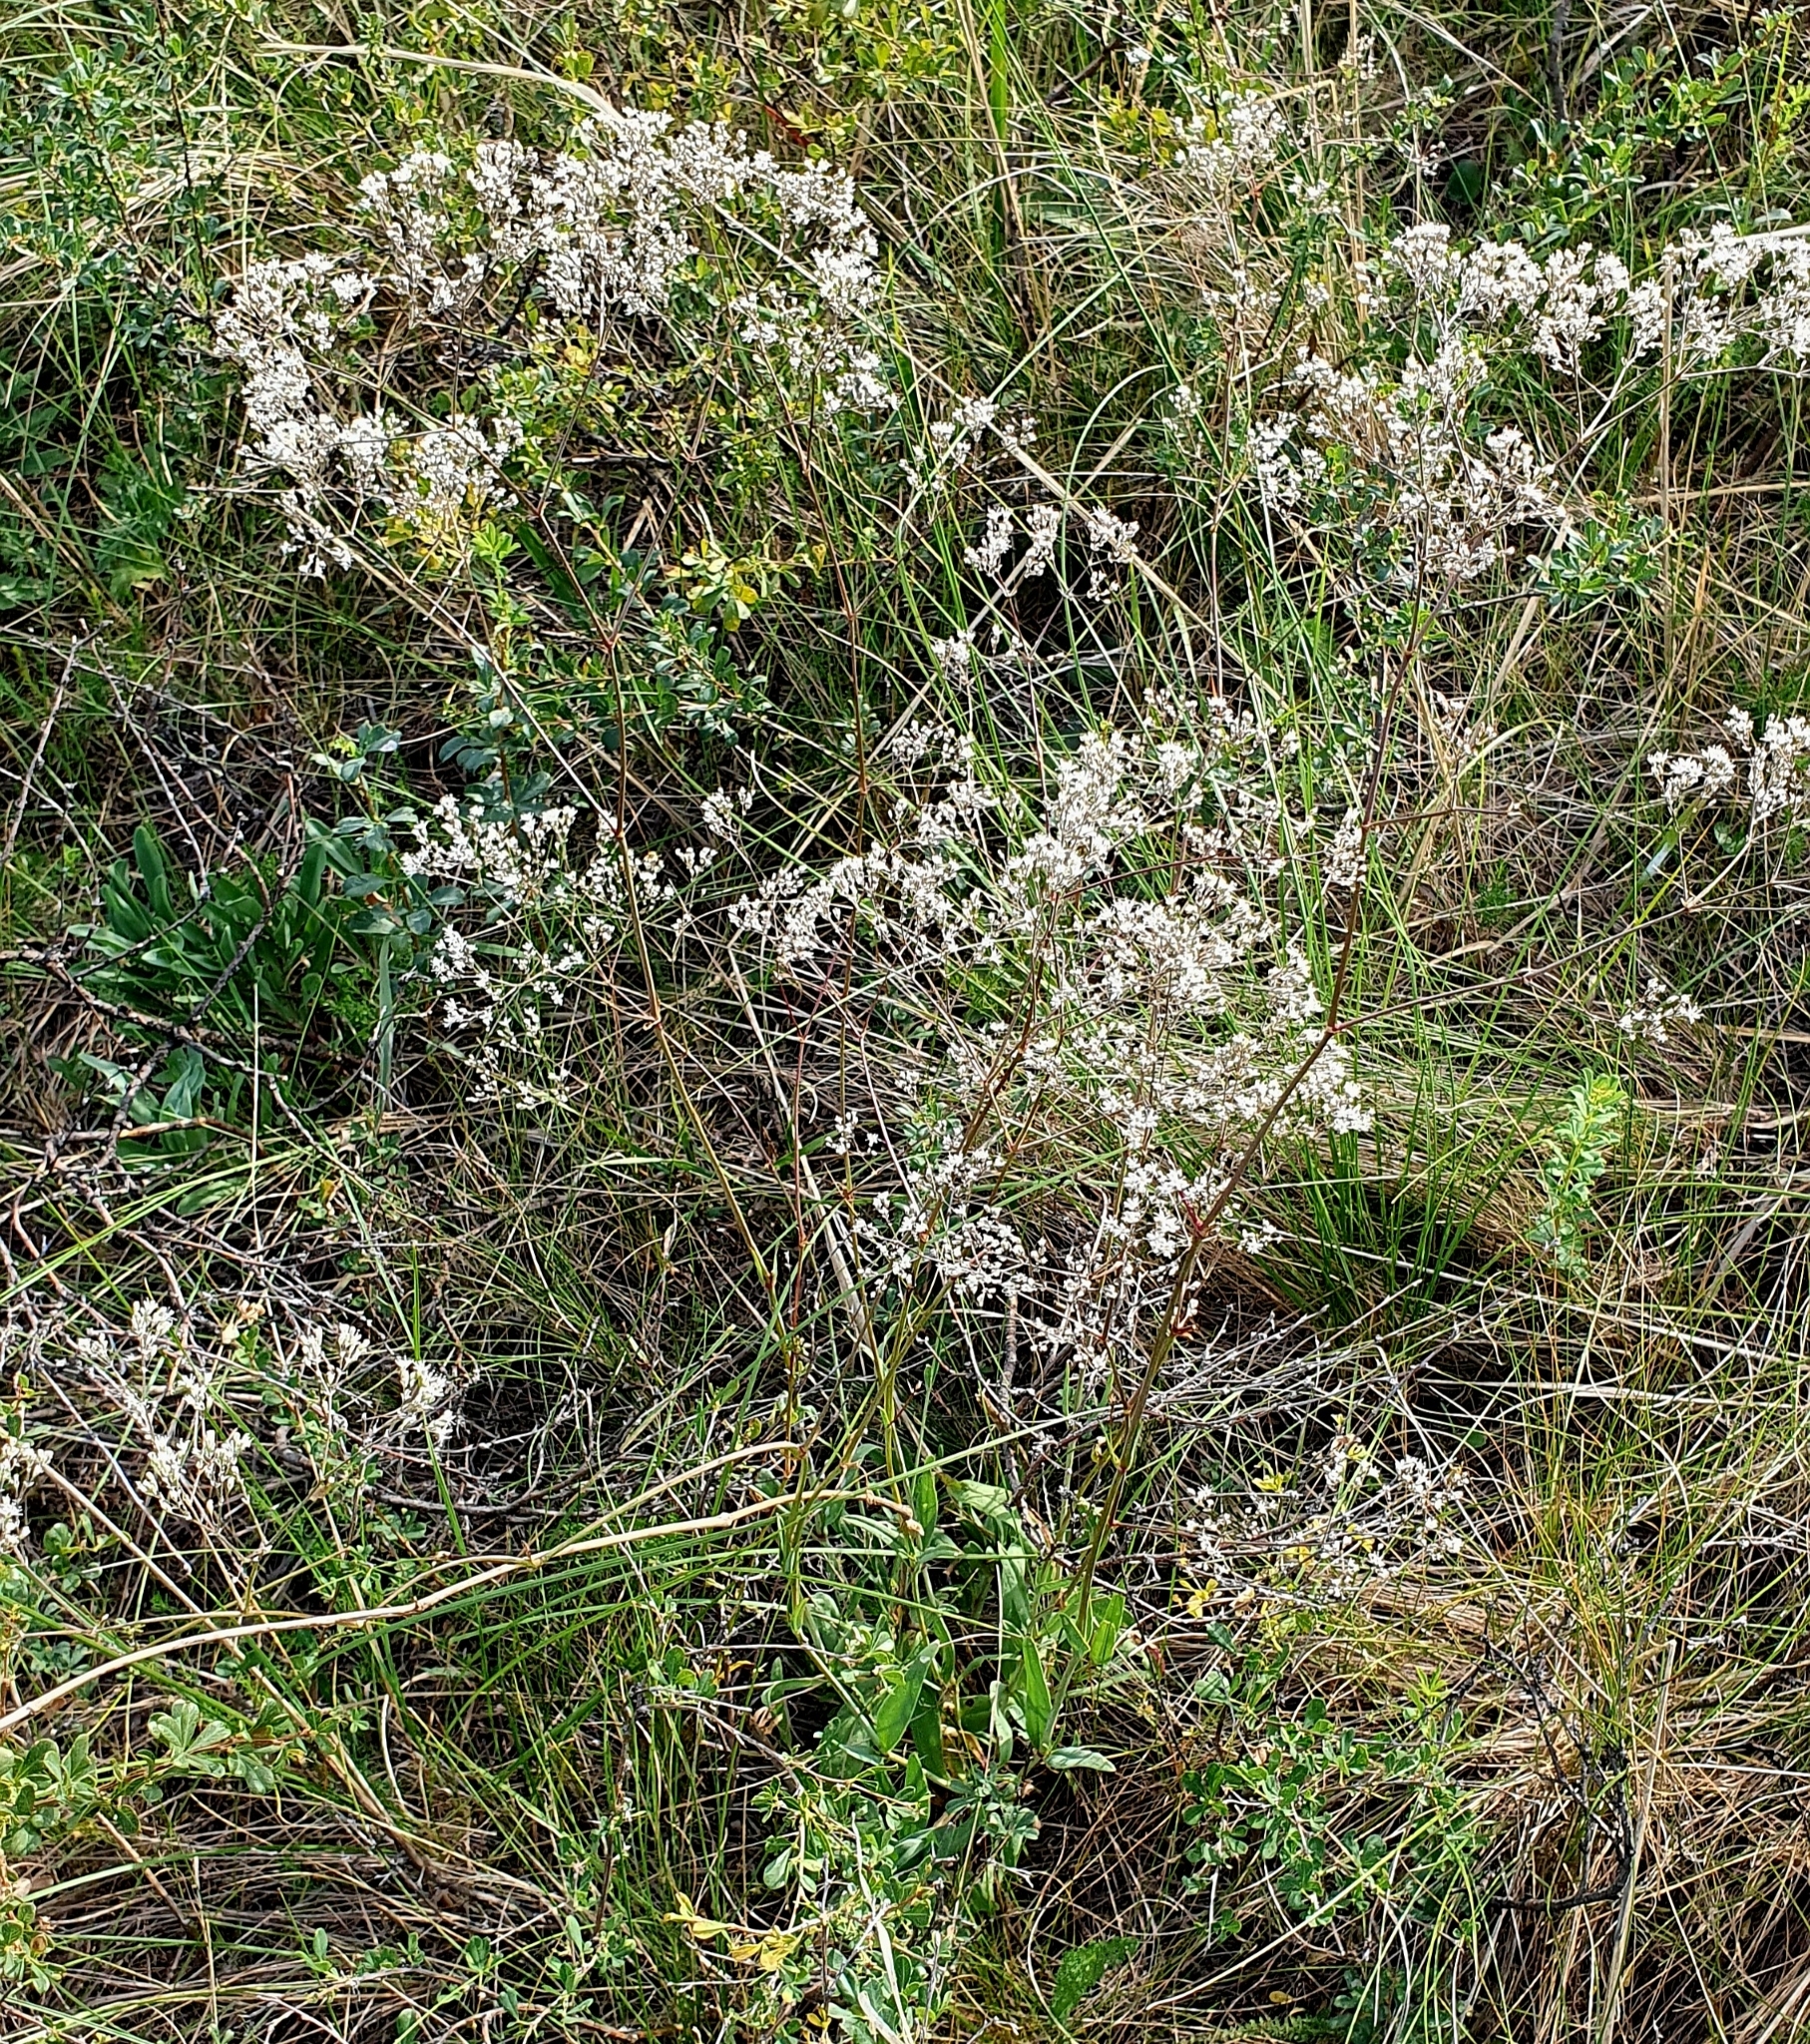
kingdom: Plantae
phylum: Tracheophyta
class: Magnoliopsida
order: Caryophyllales
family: Caryophyllaceae
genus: Gypsophila
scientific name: Gypsophila altissima
